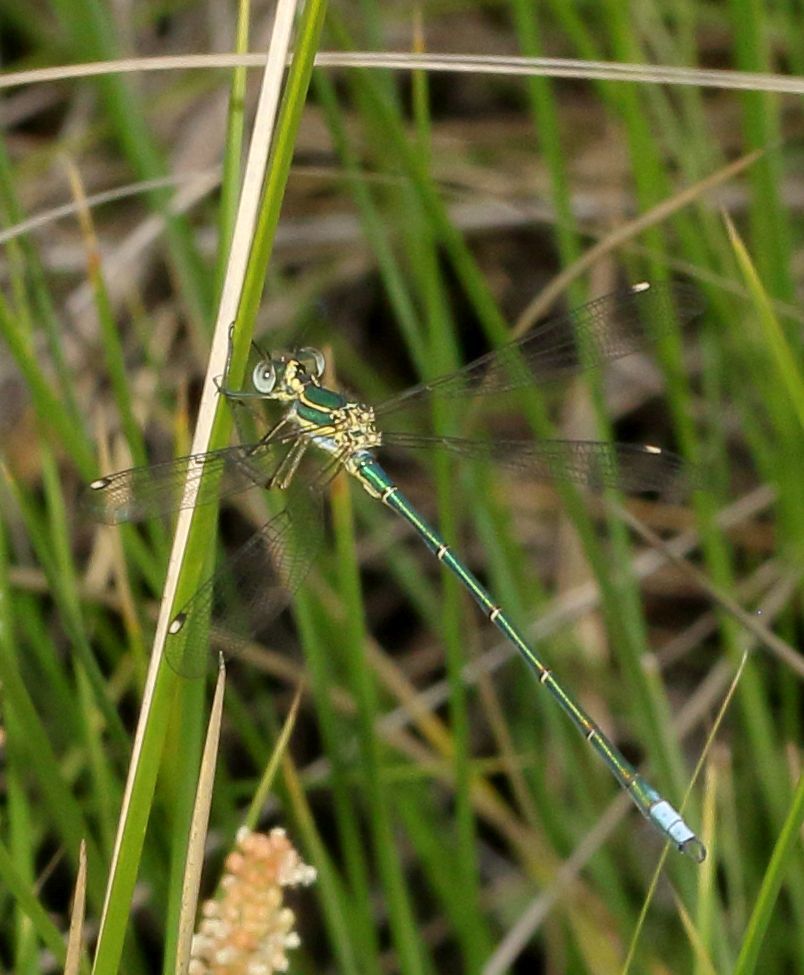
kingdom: Animalia
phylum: Arthropoda
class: Insecta
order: Odonata
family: Synlestidae
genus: Chlorolestes
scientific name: Chlorolestes fasciatus
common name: Mountain malachite
